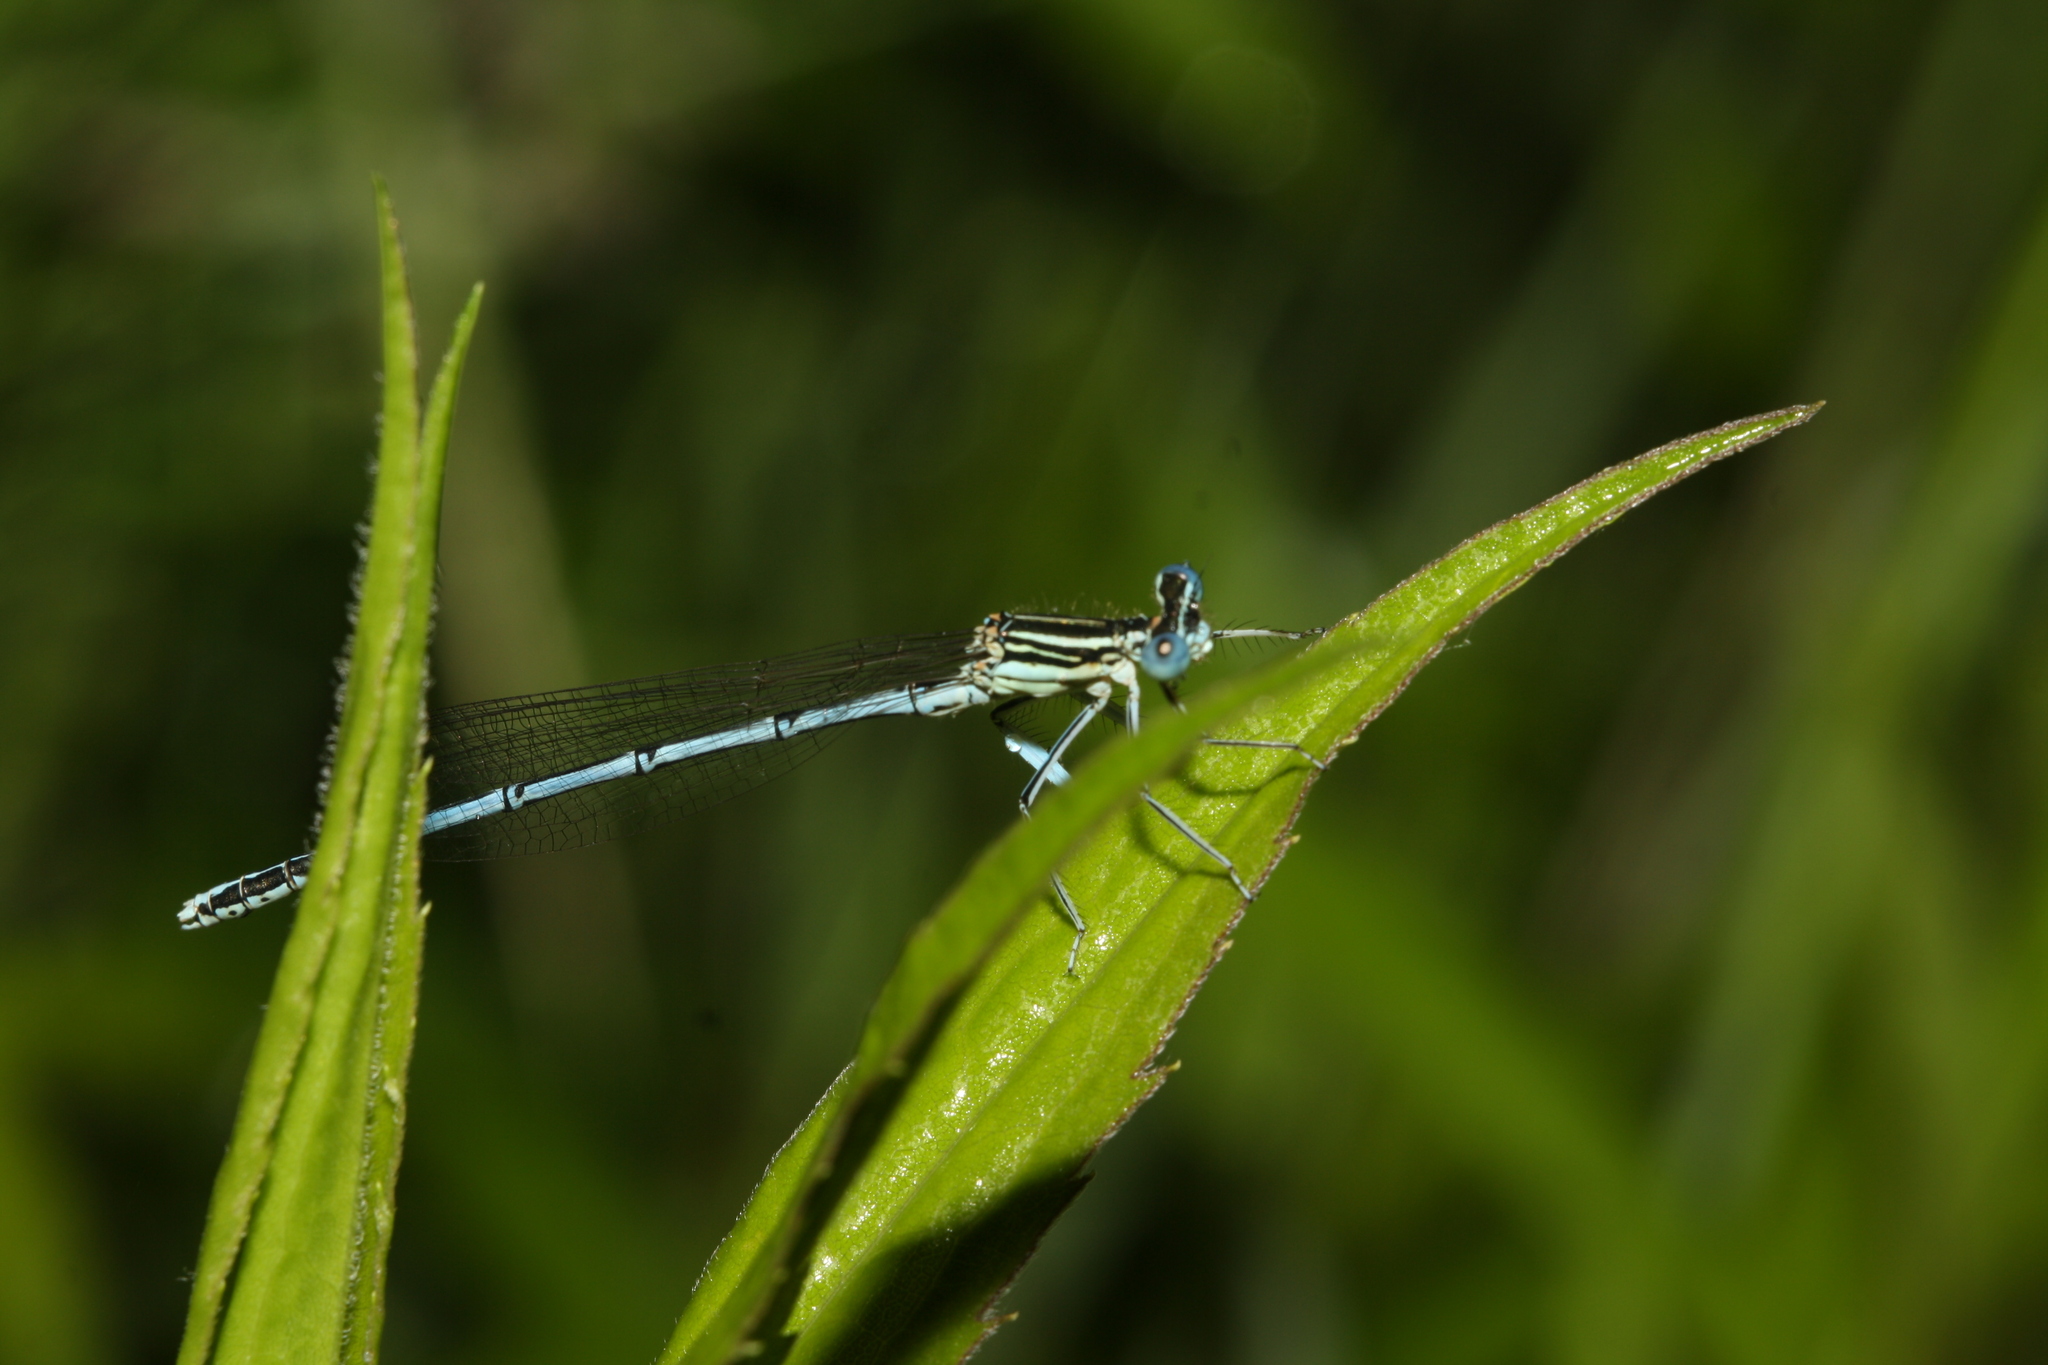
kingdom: Animalia
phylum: Arthropoda
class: Insecta
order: Odonata
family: Platycnemididae
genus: Platycnemis
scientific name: Platycnemis pennipes
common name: White-legged damselfly
